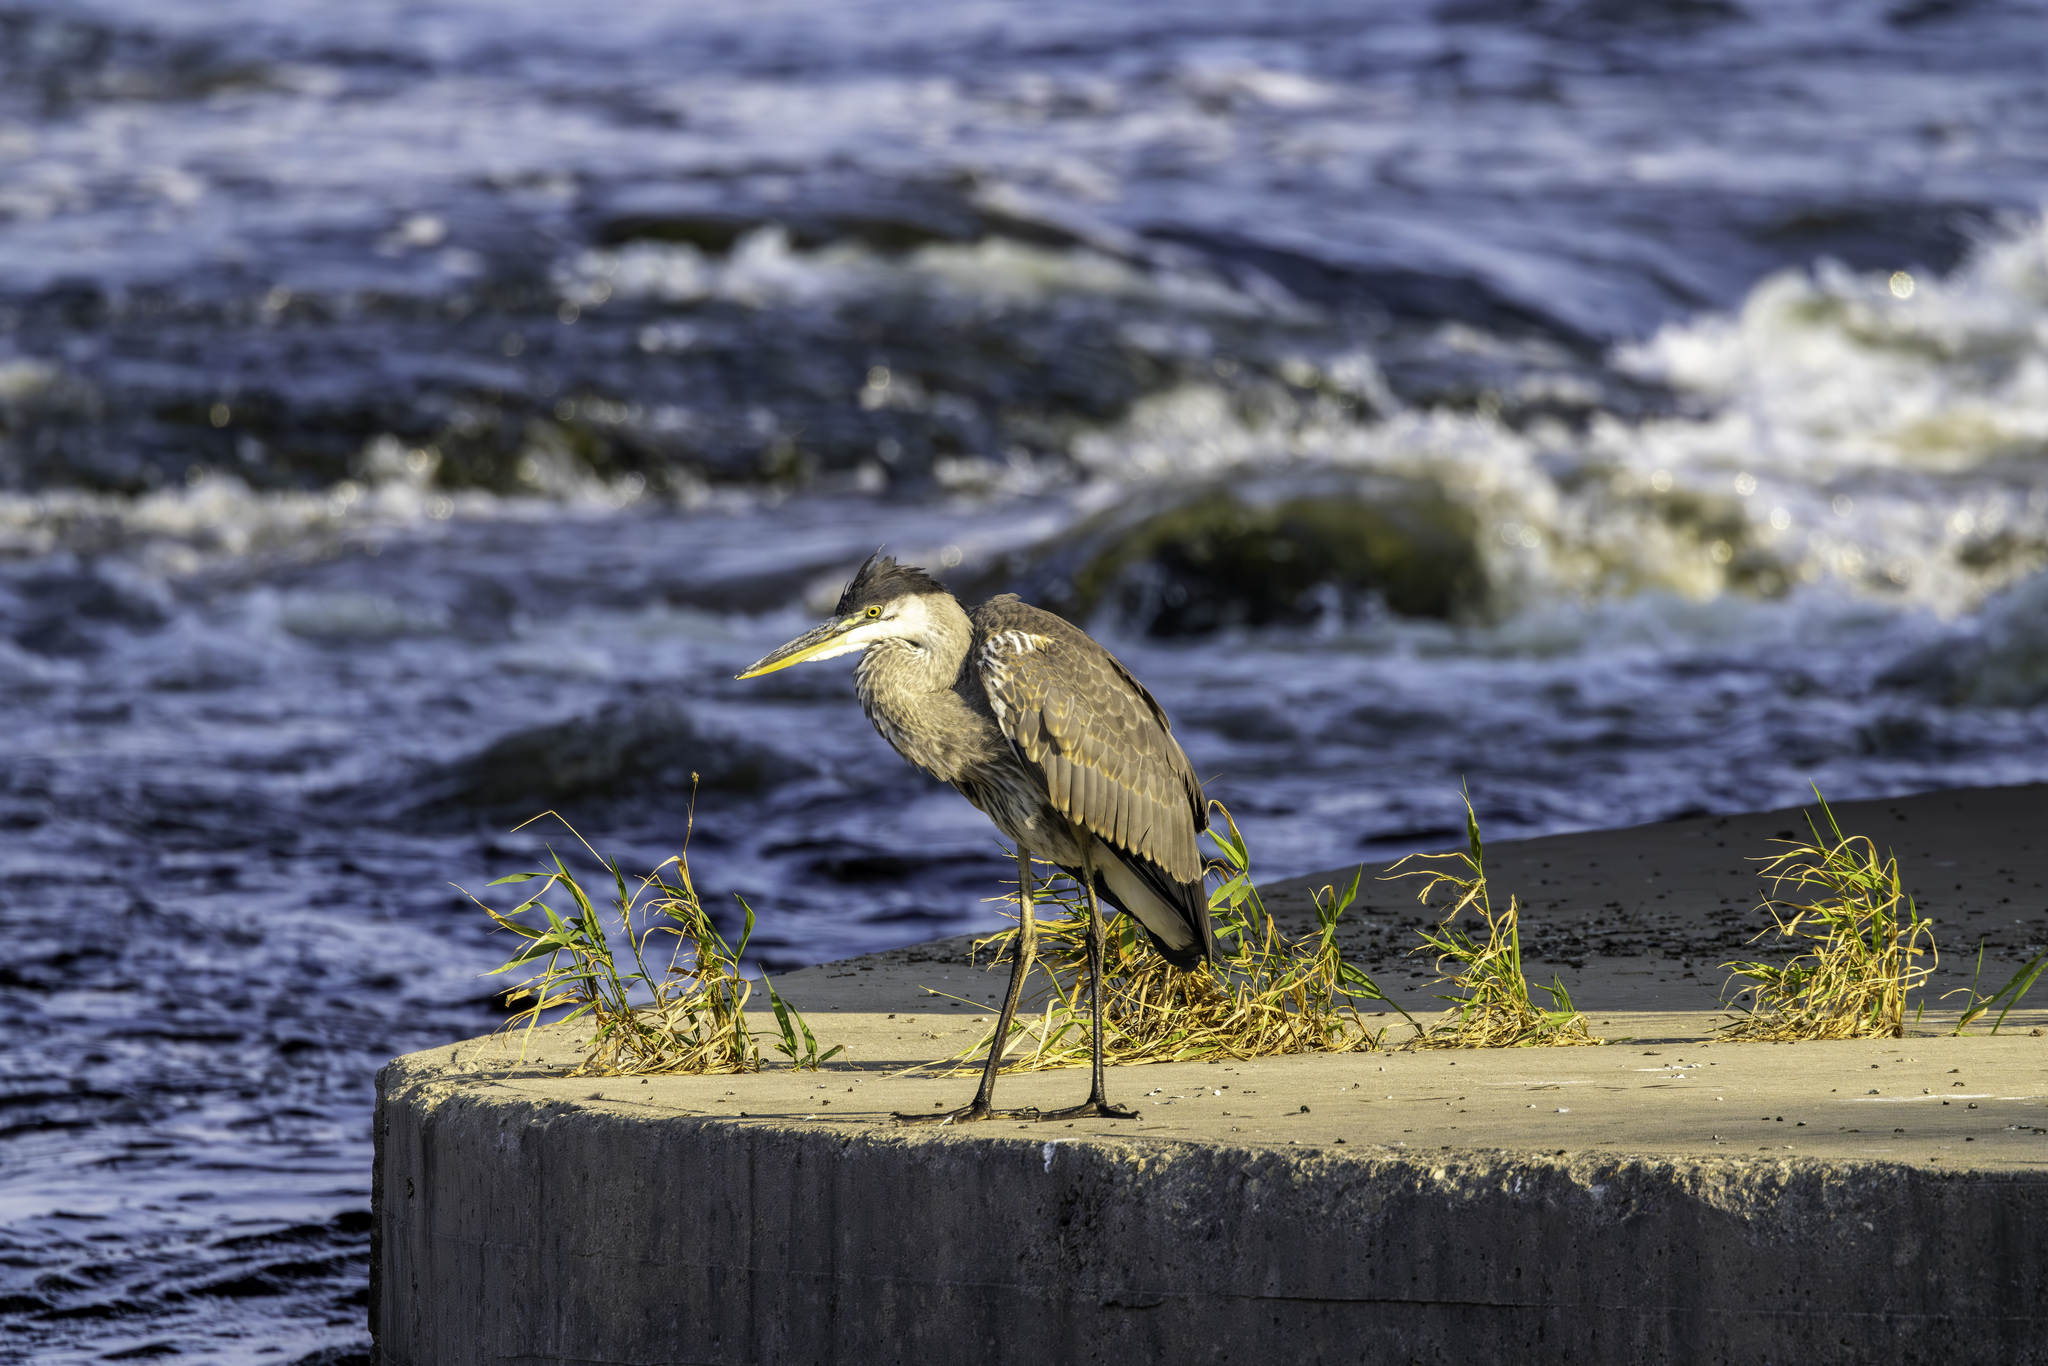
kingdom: Animalia
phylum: Chordata
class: Aves
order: Pelecaniformes
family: Ardeidae
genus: Ardea
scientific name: Ardea herodias
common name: Great blue heron
